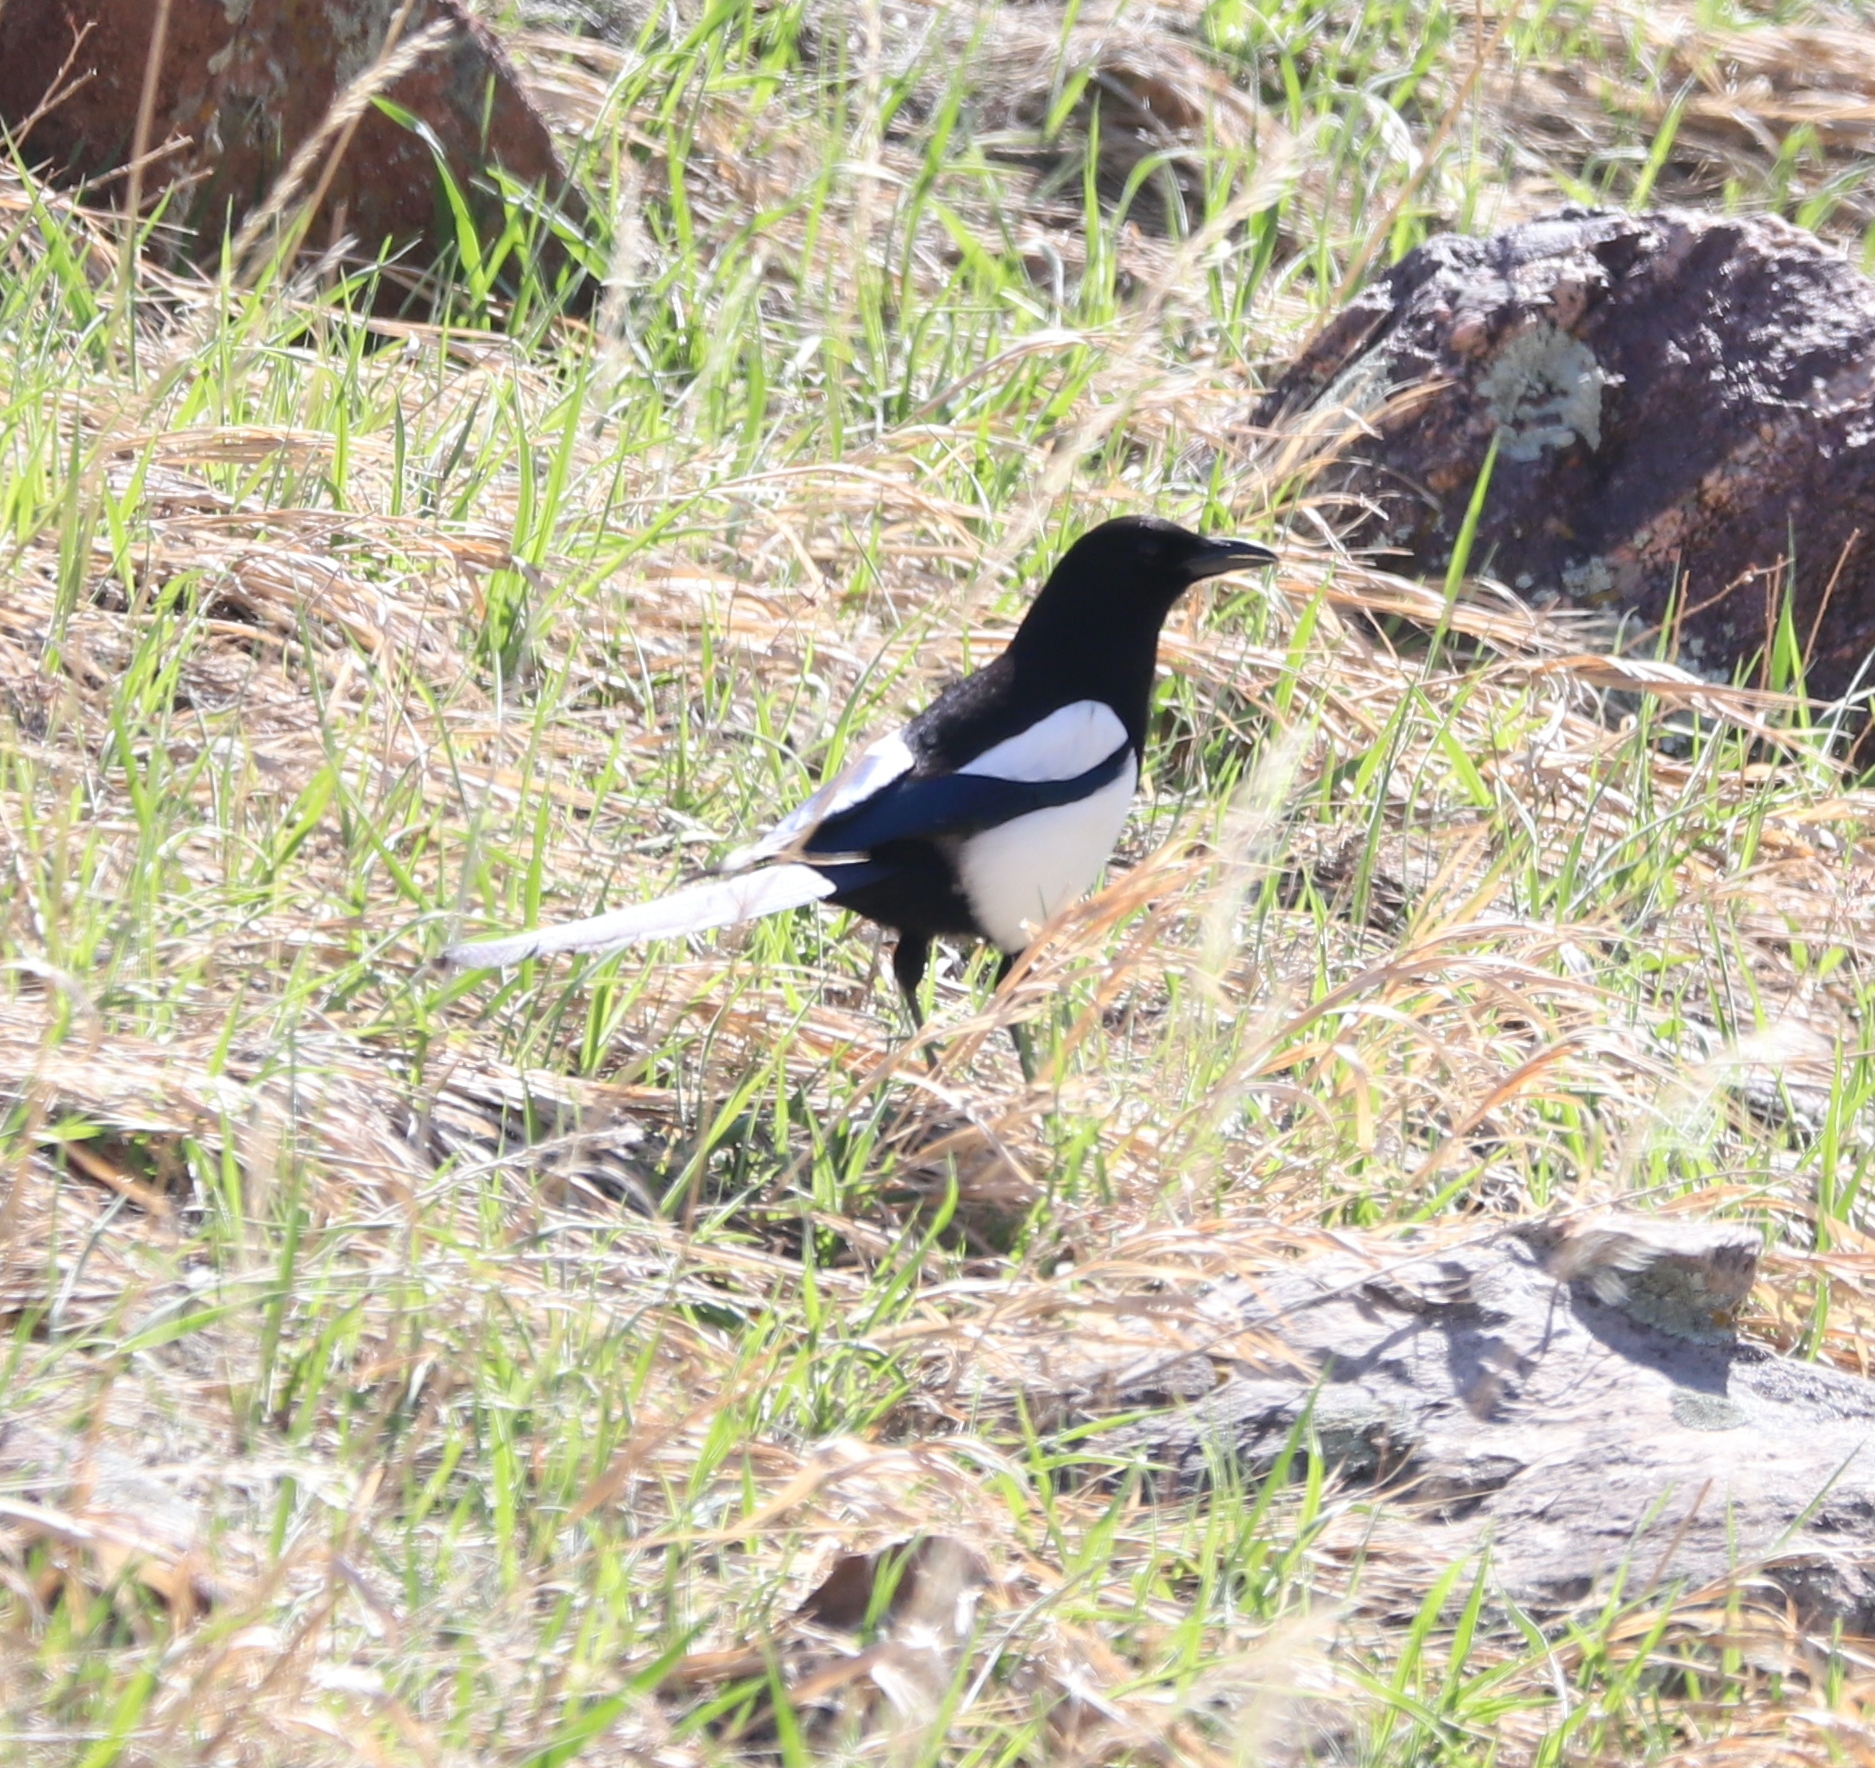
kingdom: Animalia
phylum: Chordata
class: Aves
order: Passeriformes
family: Corvidae
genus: Pica
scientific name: Pica hudsonia
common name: Black-billed magpie
